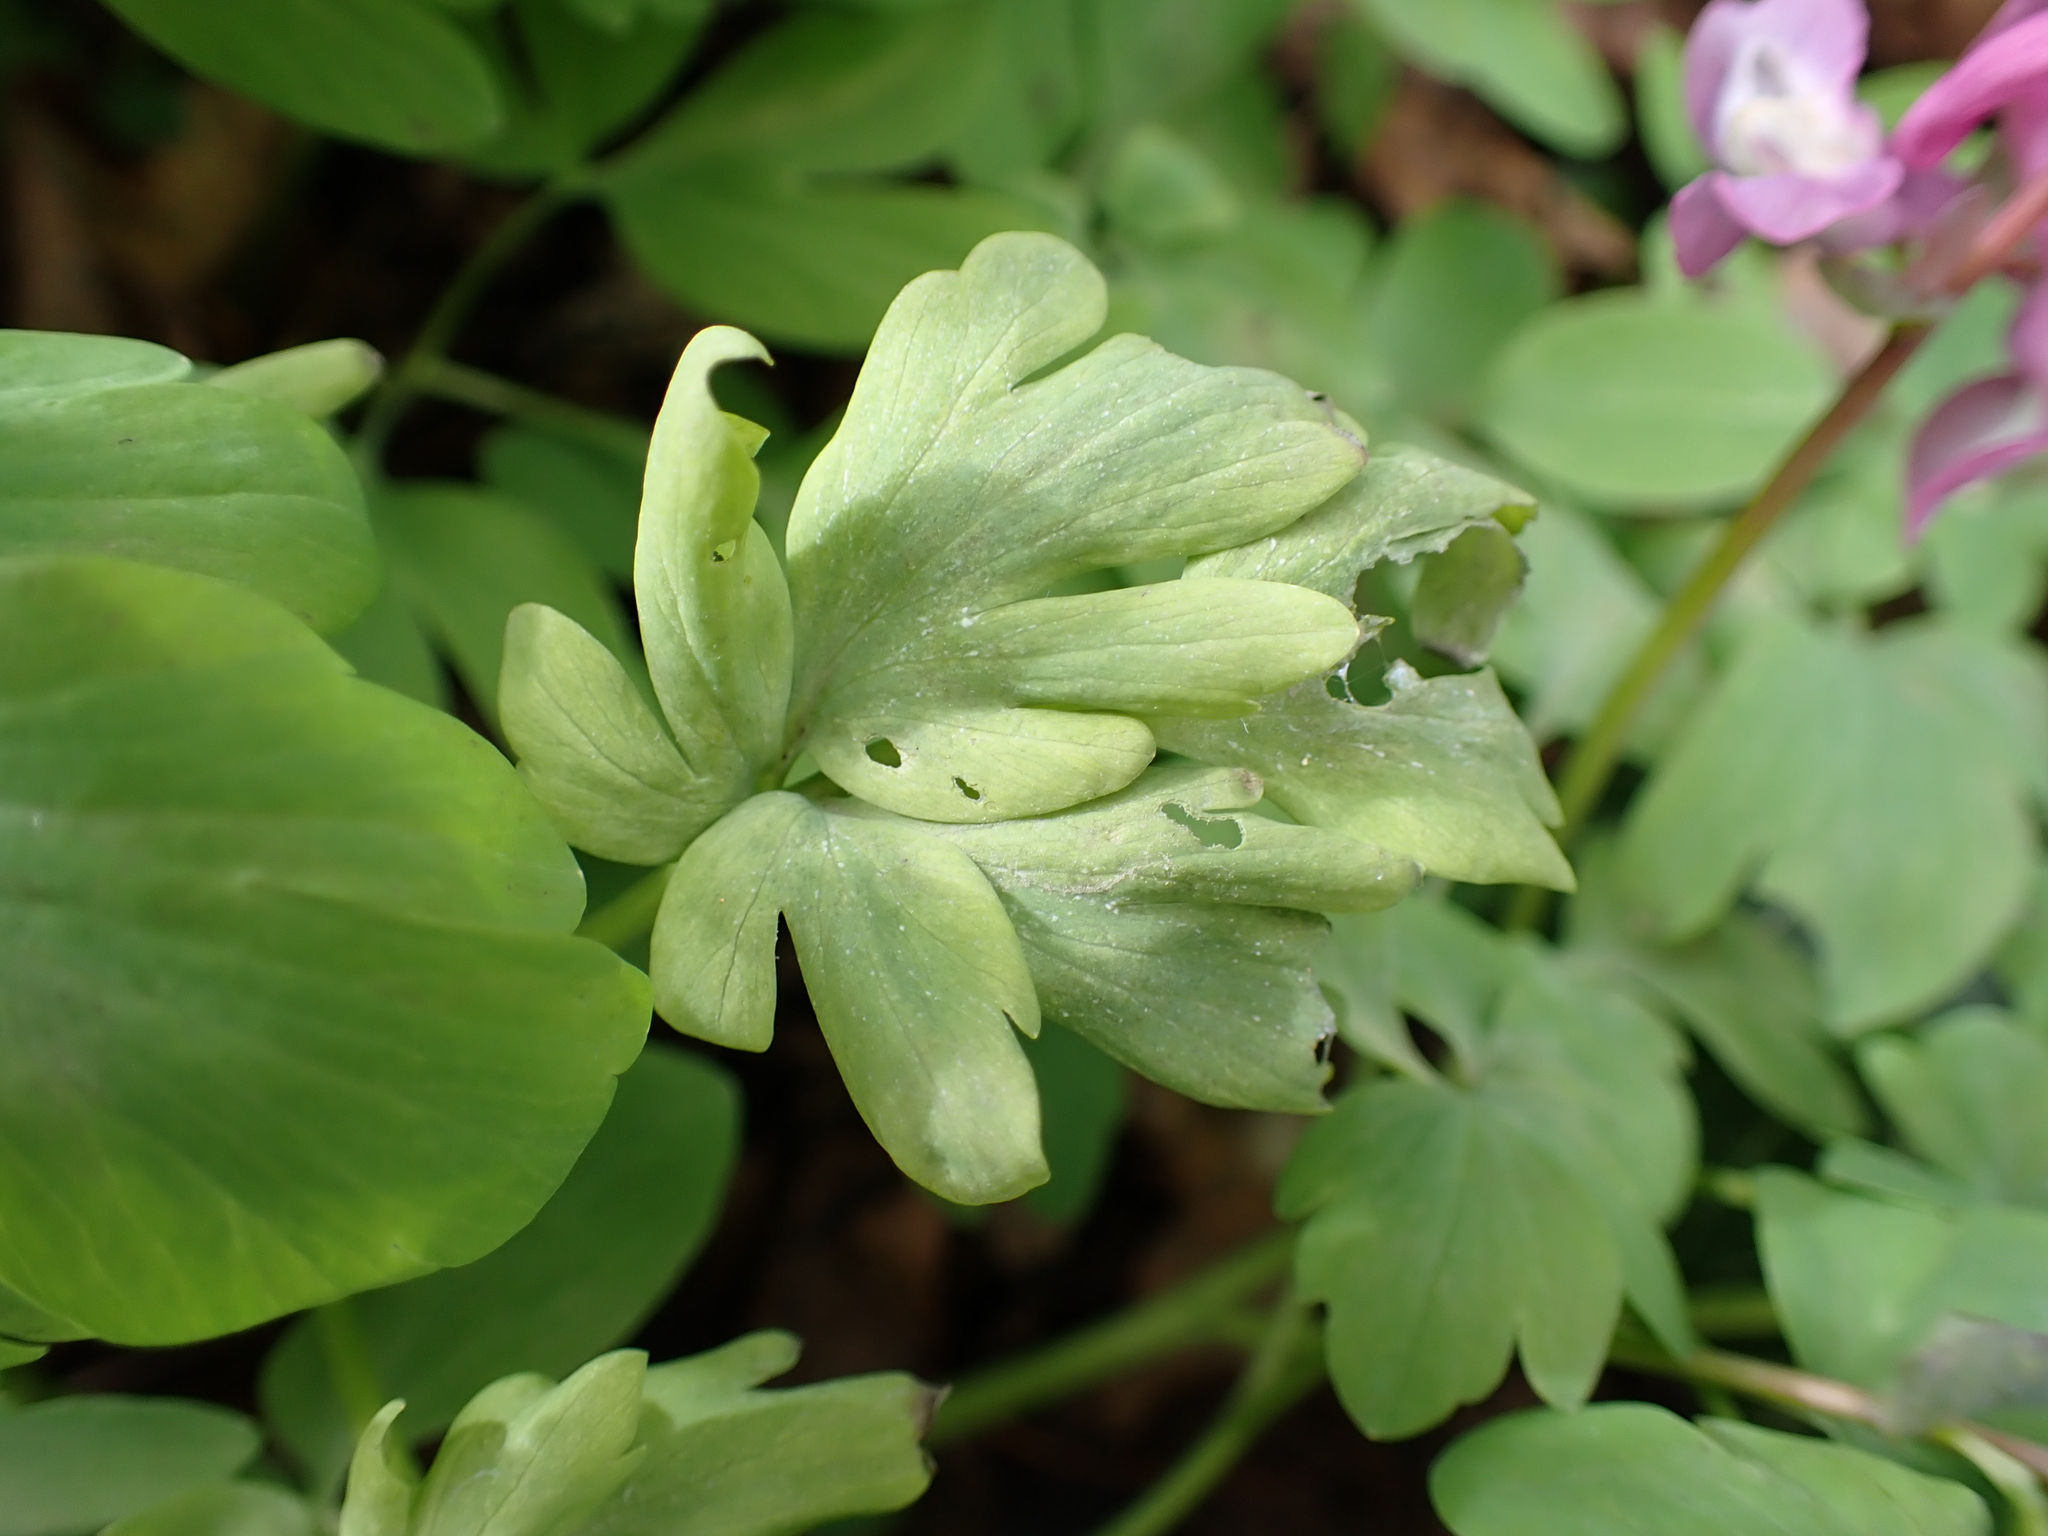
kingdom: Chromista
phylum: Oomycota
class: Peronosporea
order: Peronosporales
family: Peronosporaceae
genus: Peronospora
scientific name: Peronospora bulbocapni
